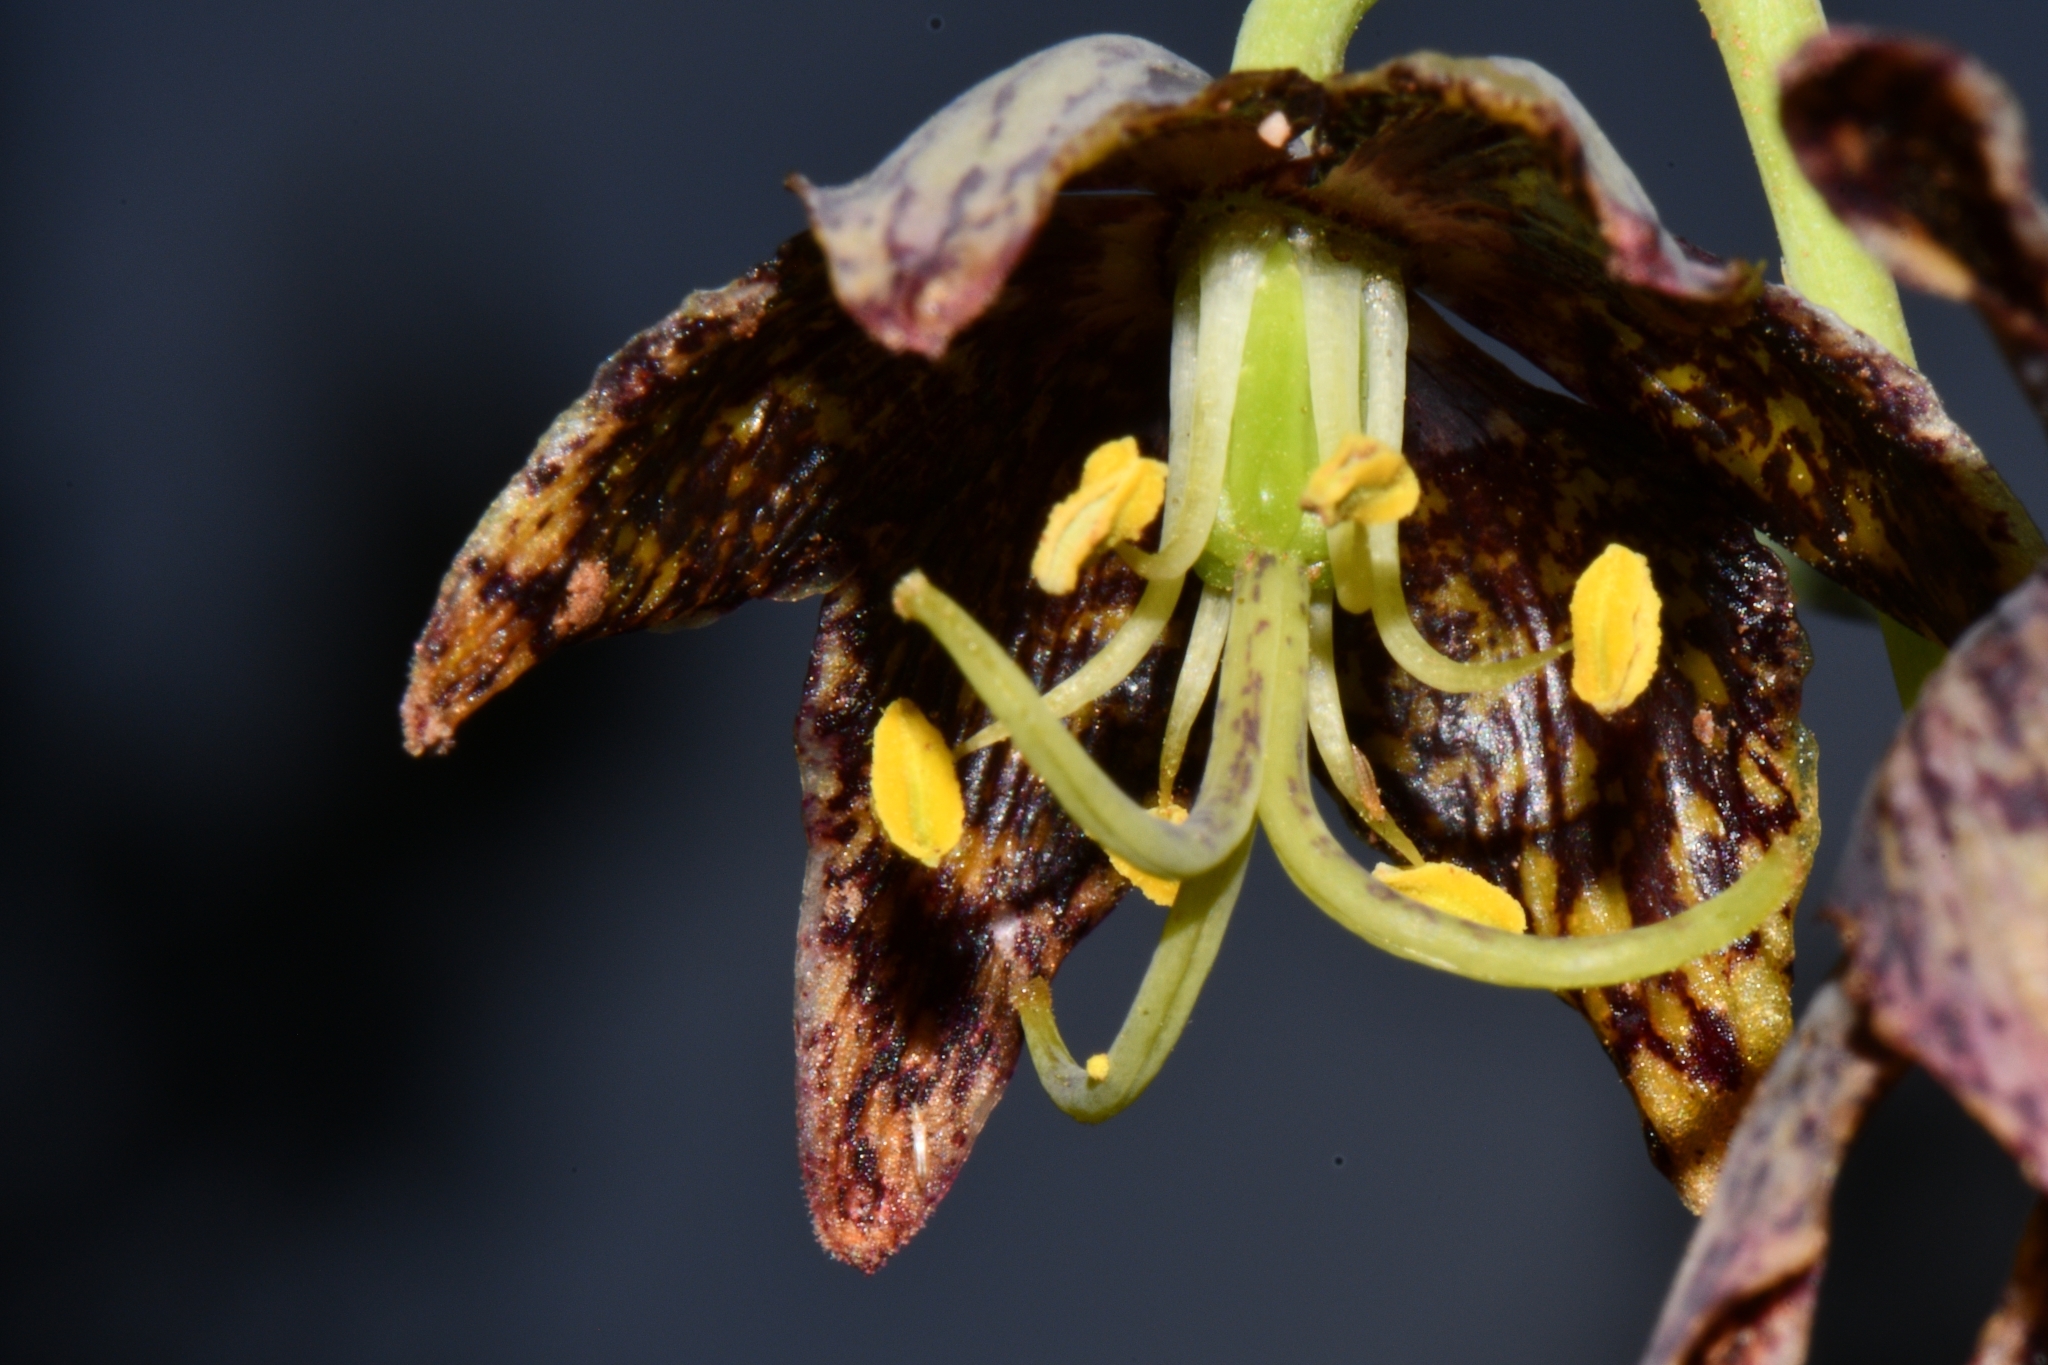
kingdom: Plantae
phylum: Tracheophyta
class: Liliopsida
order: Liliales
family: Liliaceae
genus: Fritillaria
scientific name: Fritillaria atropurpurea
